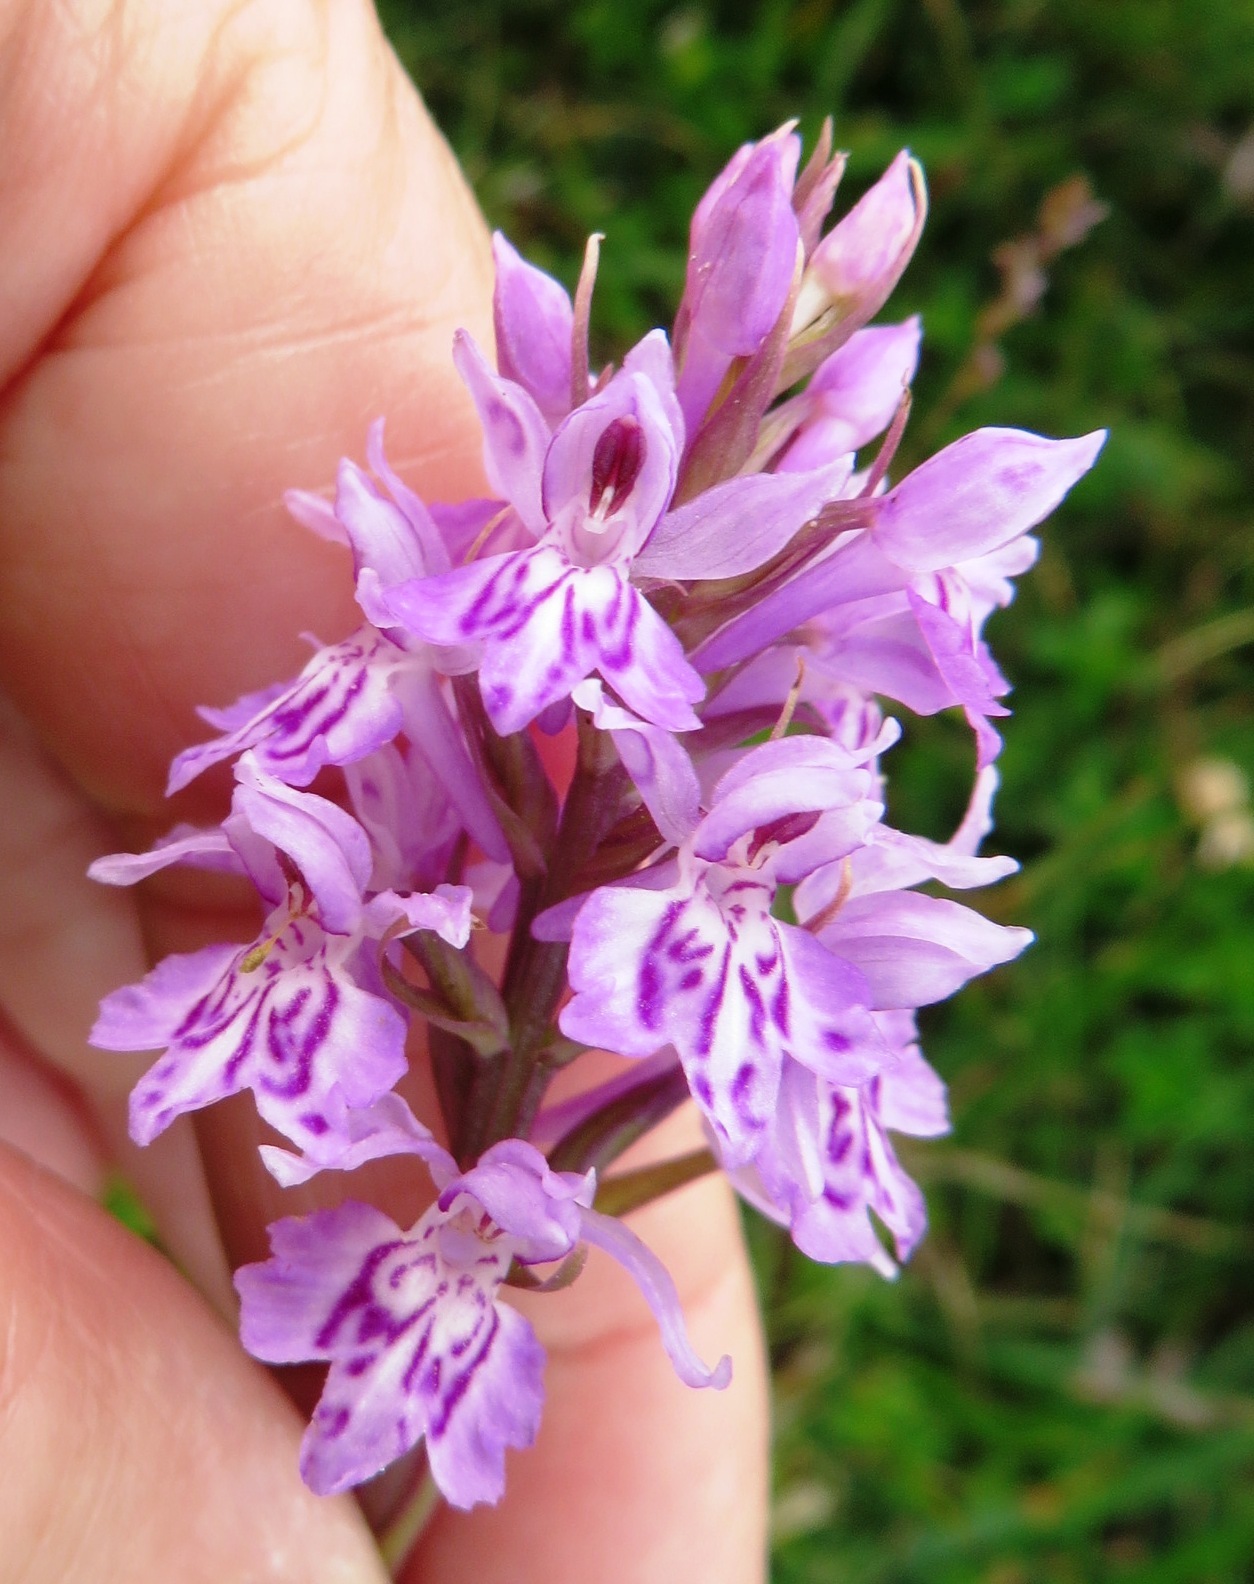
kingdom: Plantae
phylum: Tracheophyta
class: Liliopsida
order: Asparagales
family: Orchidaceae
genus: Dactylorhiza
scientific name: Dactylorhiza maculata
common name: Heath spotted-orchid
